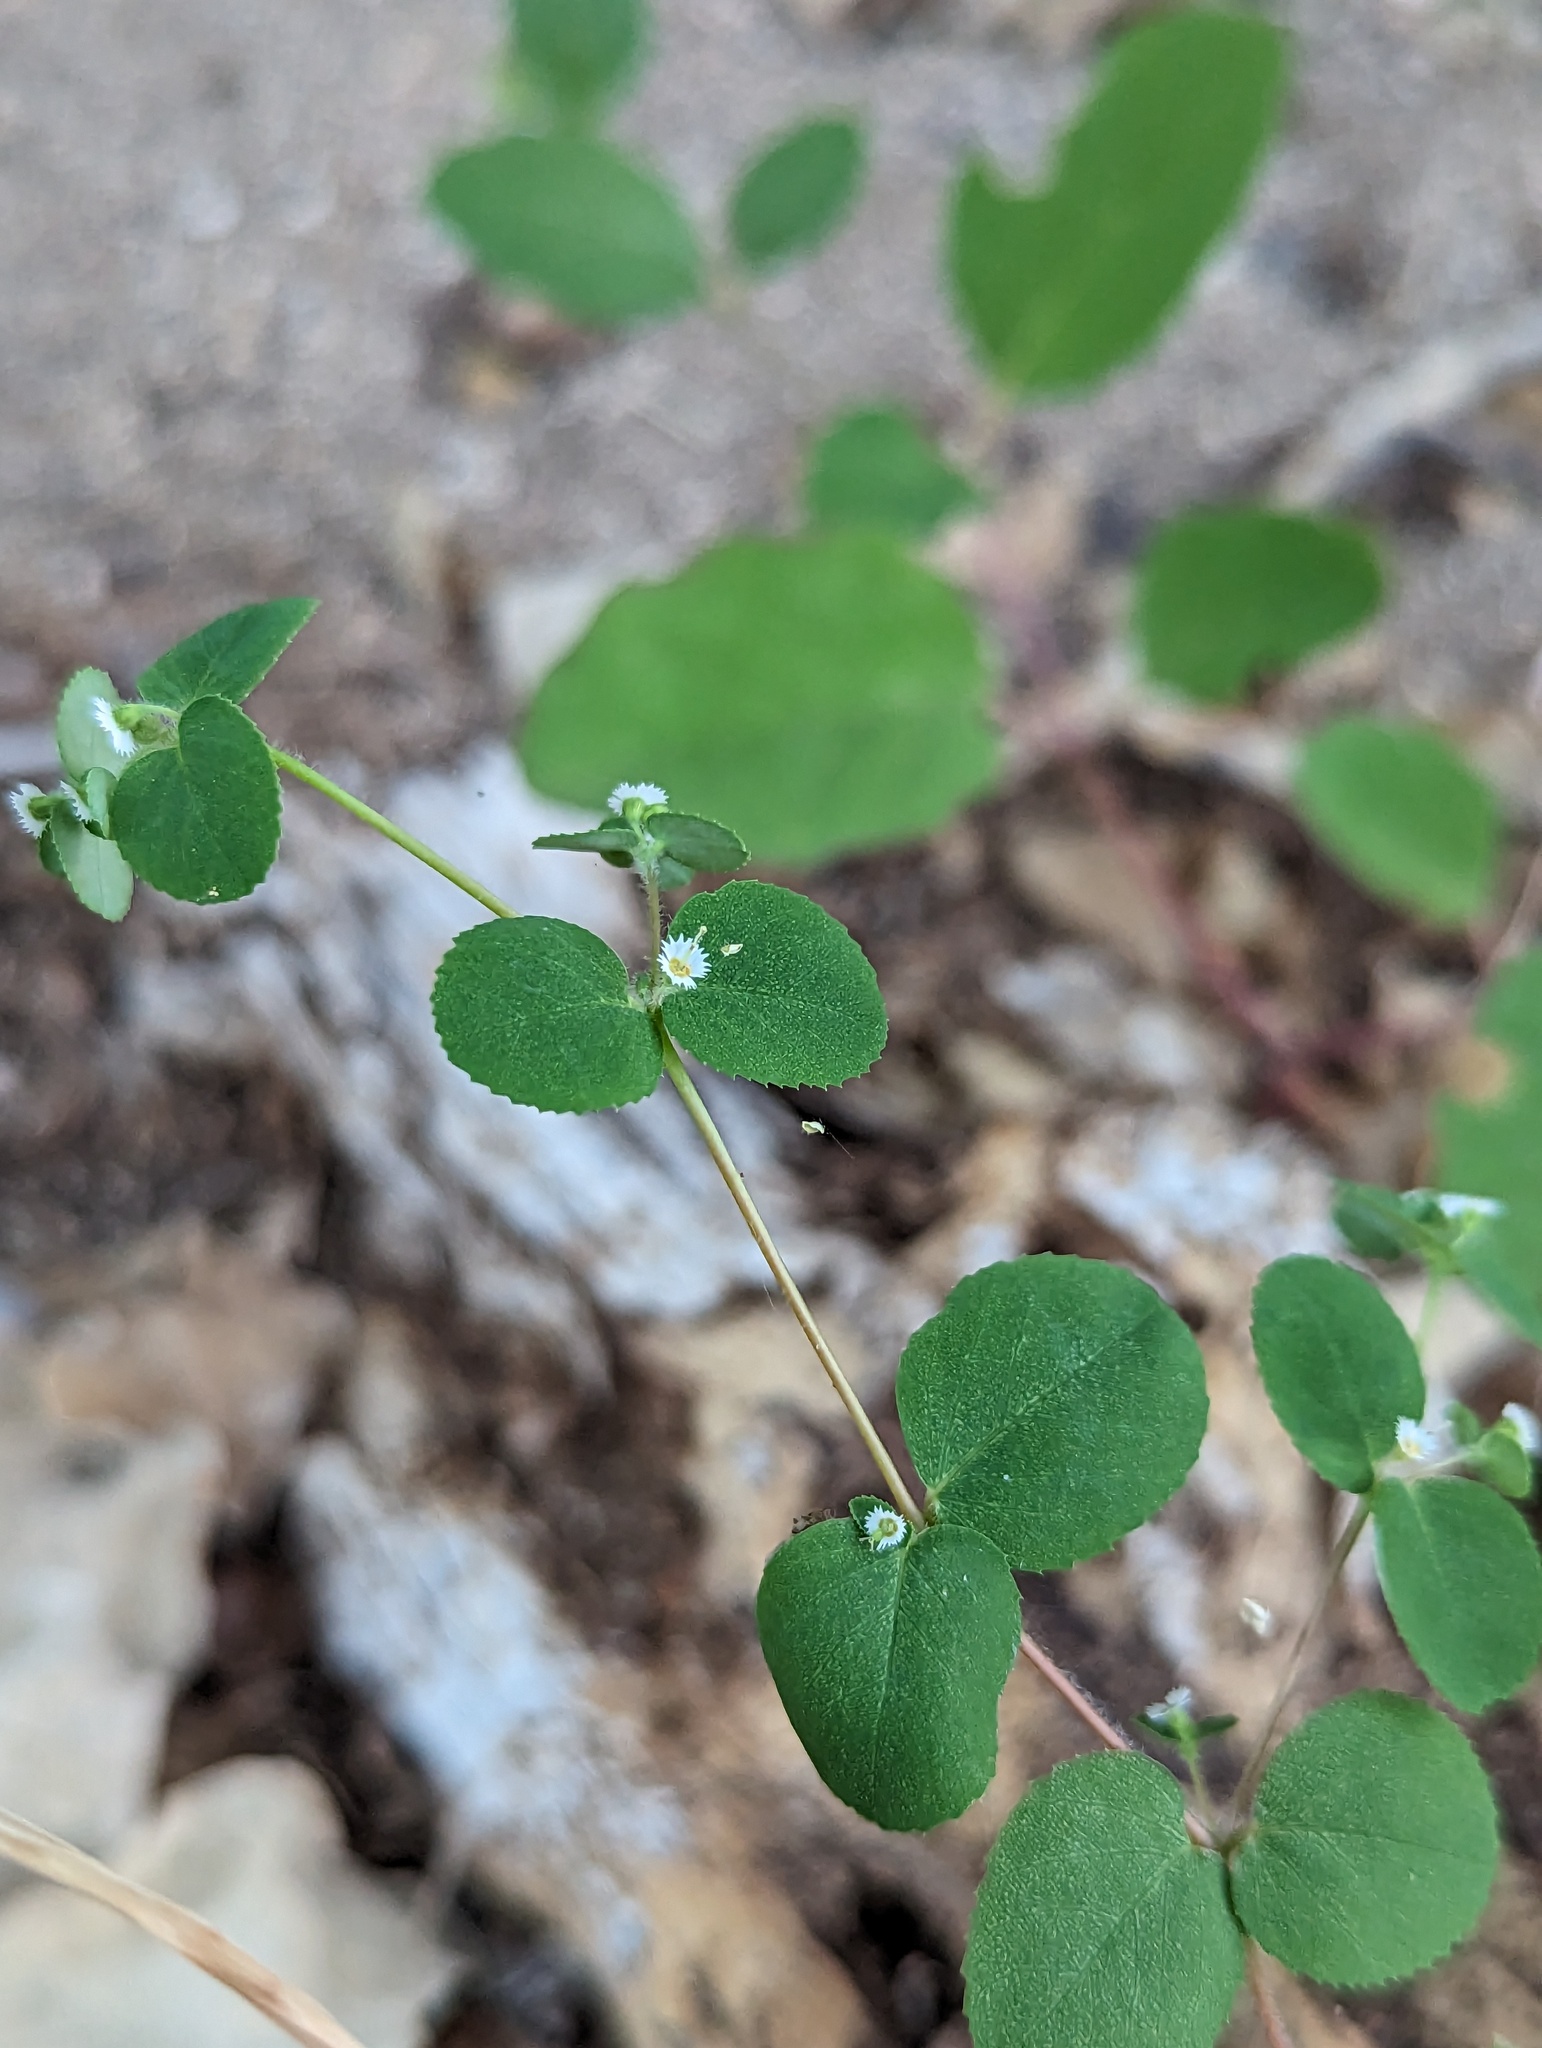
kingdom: Plantae
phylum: Tracheophyta
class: Magnoliopsida
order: Malpighiales
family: Euphorbiaceae
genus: Euphorbia
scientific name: Euphorbia dentosa
